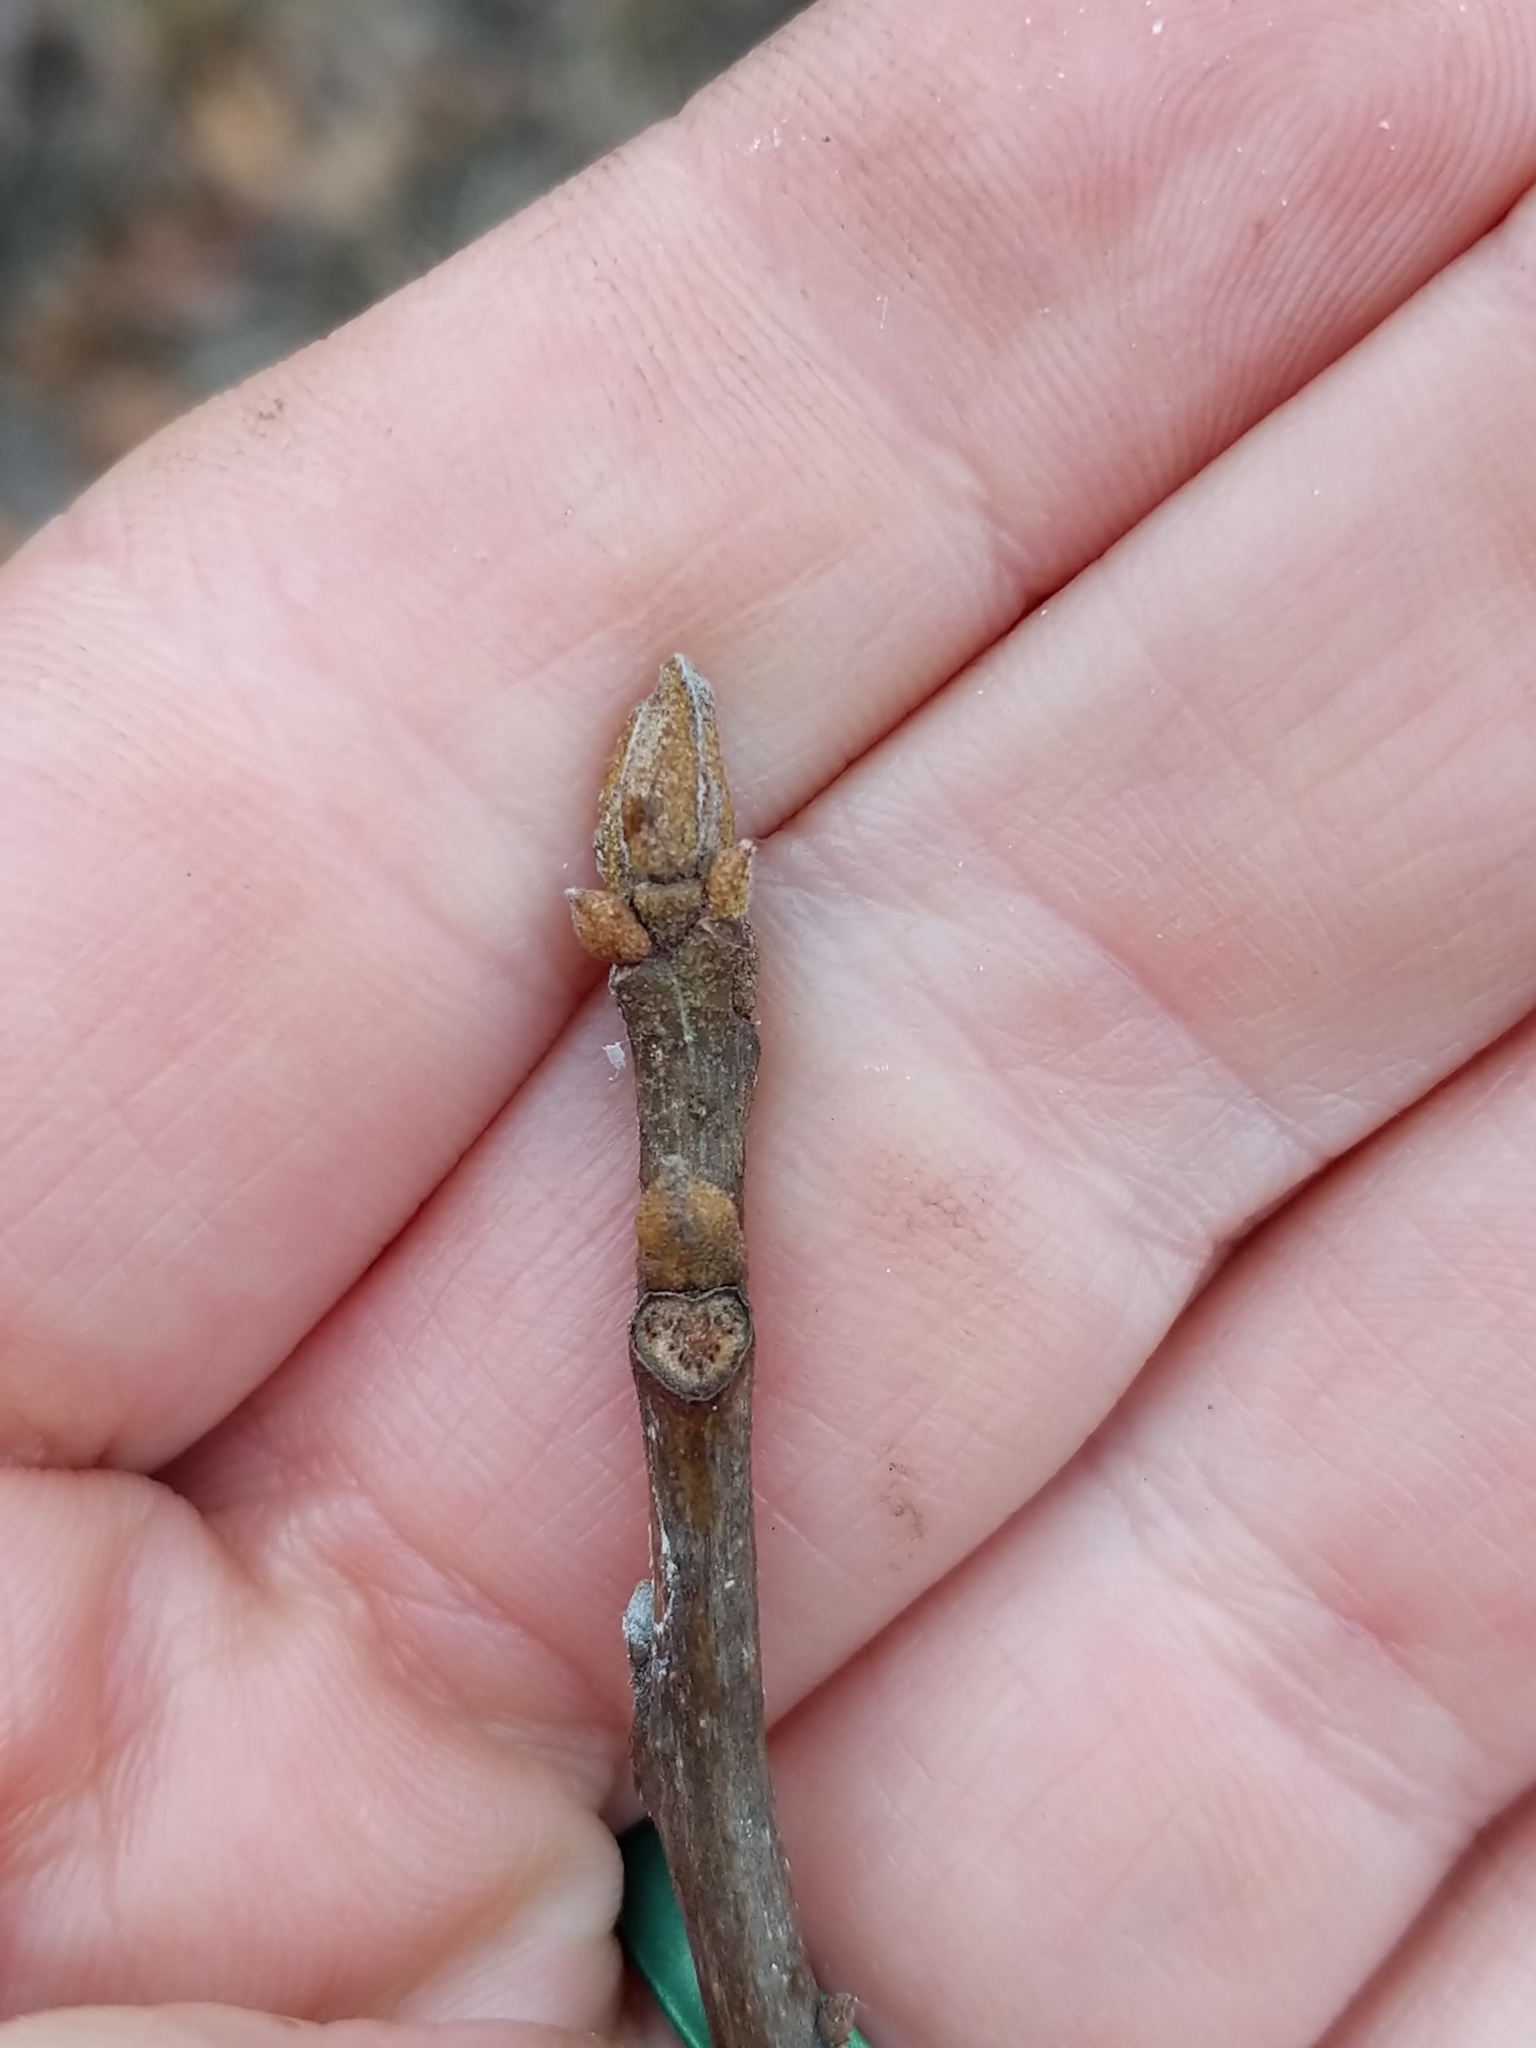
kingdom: Plantae
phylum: Tracheophyta
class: Magnoliopsida
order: Fagales
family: Juglandaceae
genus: Carya
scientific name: Carya cordiformis
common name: Bitternut hickory
